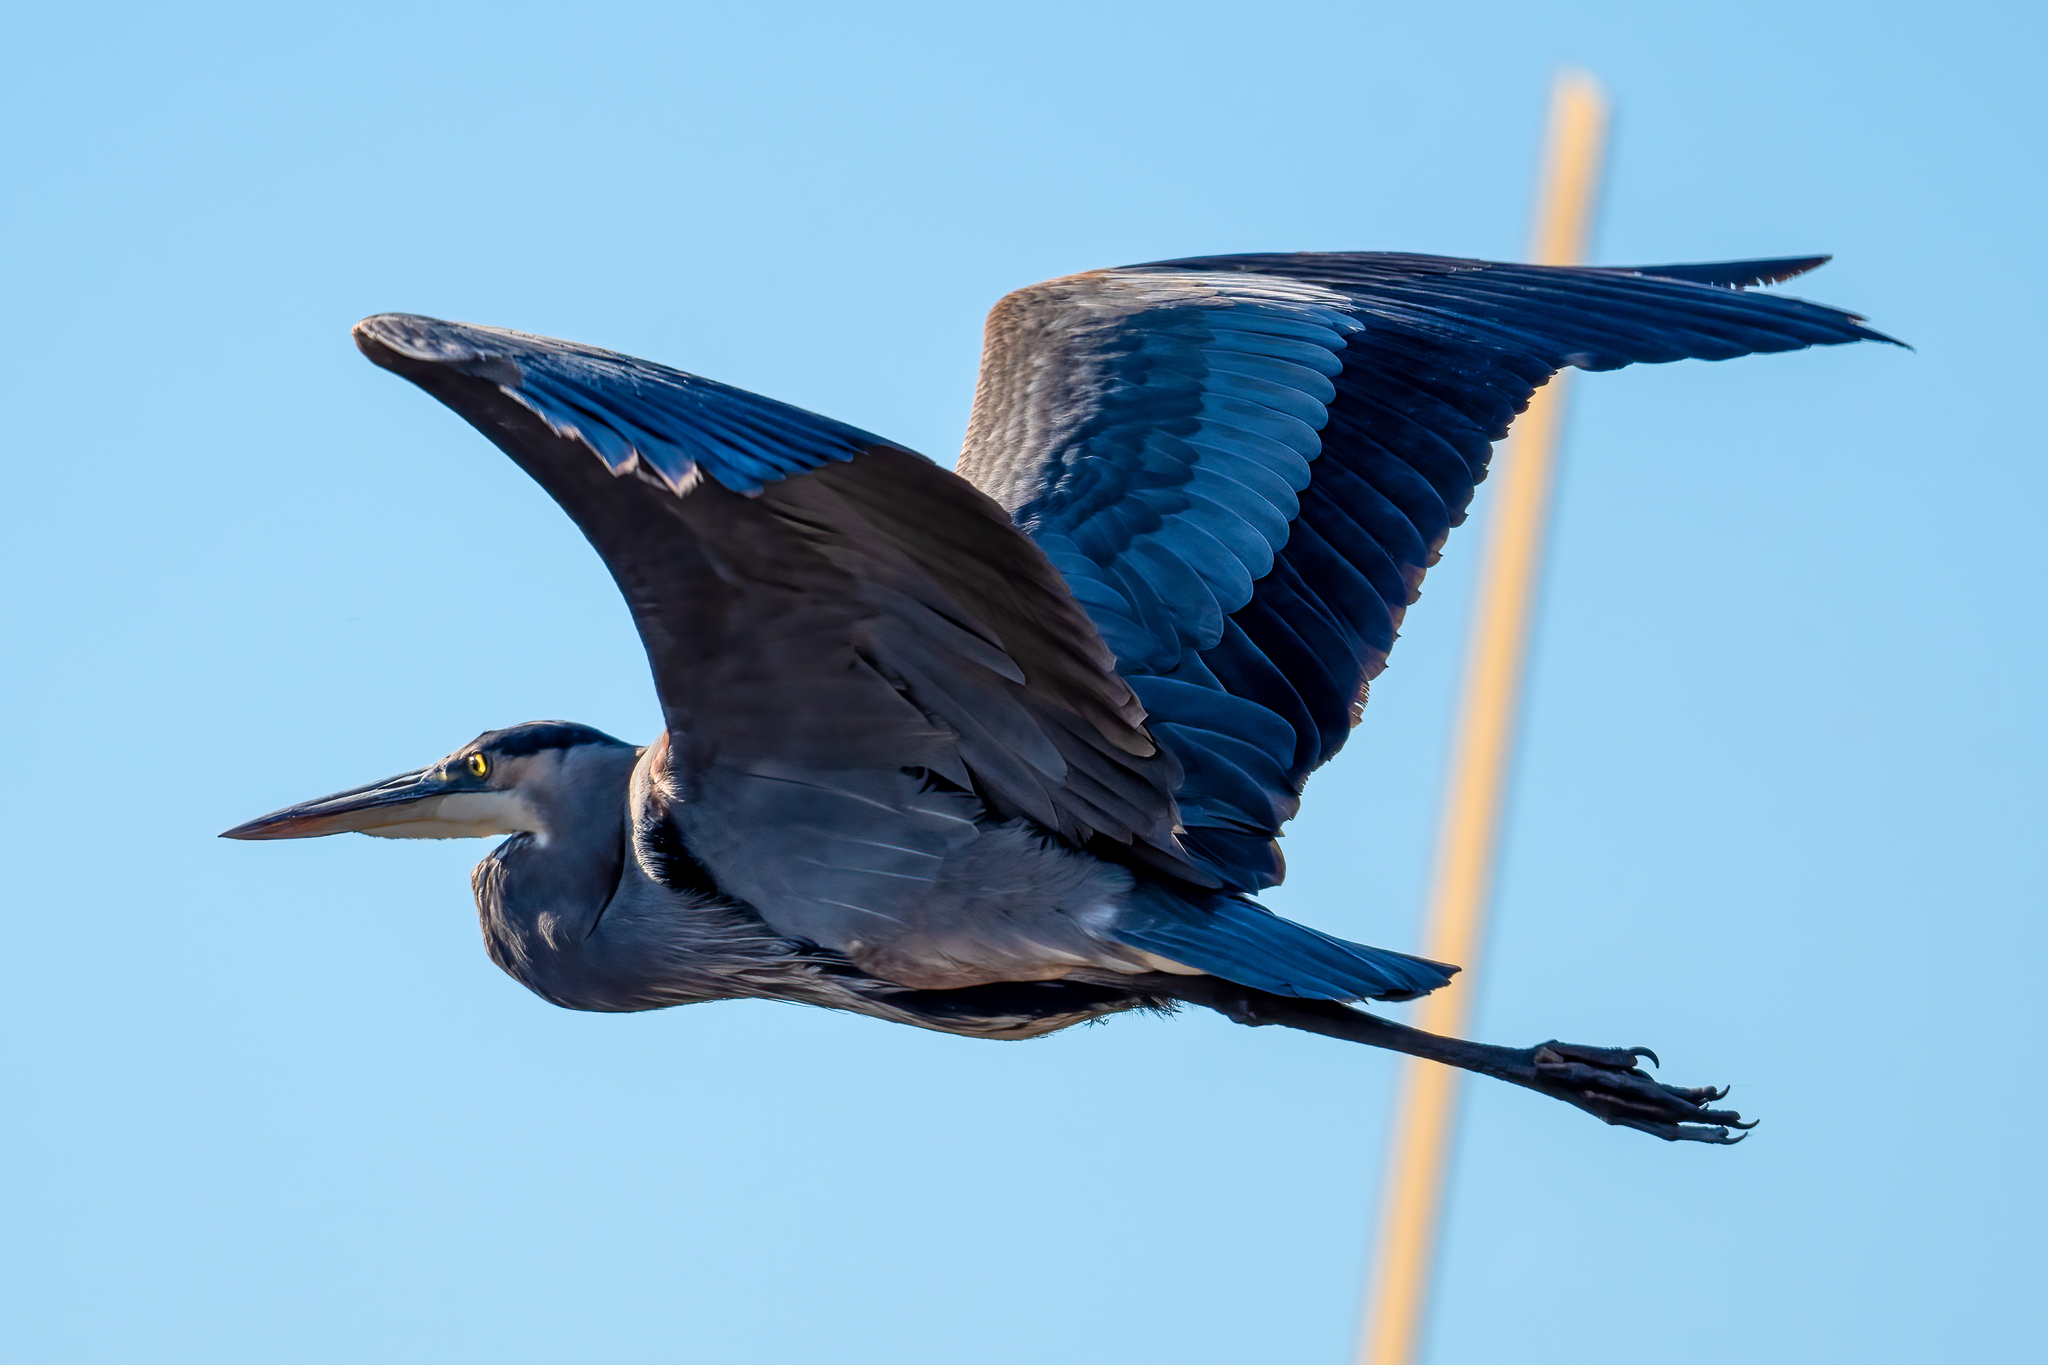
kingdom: Animalia
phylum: Chordata
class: Aves
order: Pelecaniformes
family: Ardeidae
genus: Ardea
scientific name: Ardea herodias
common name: Great blue heron
